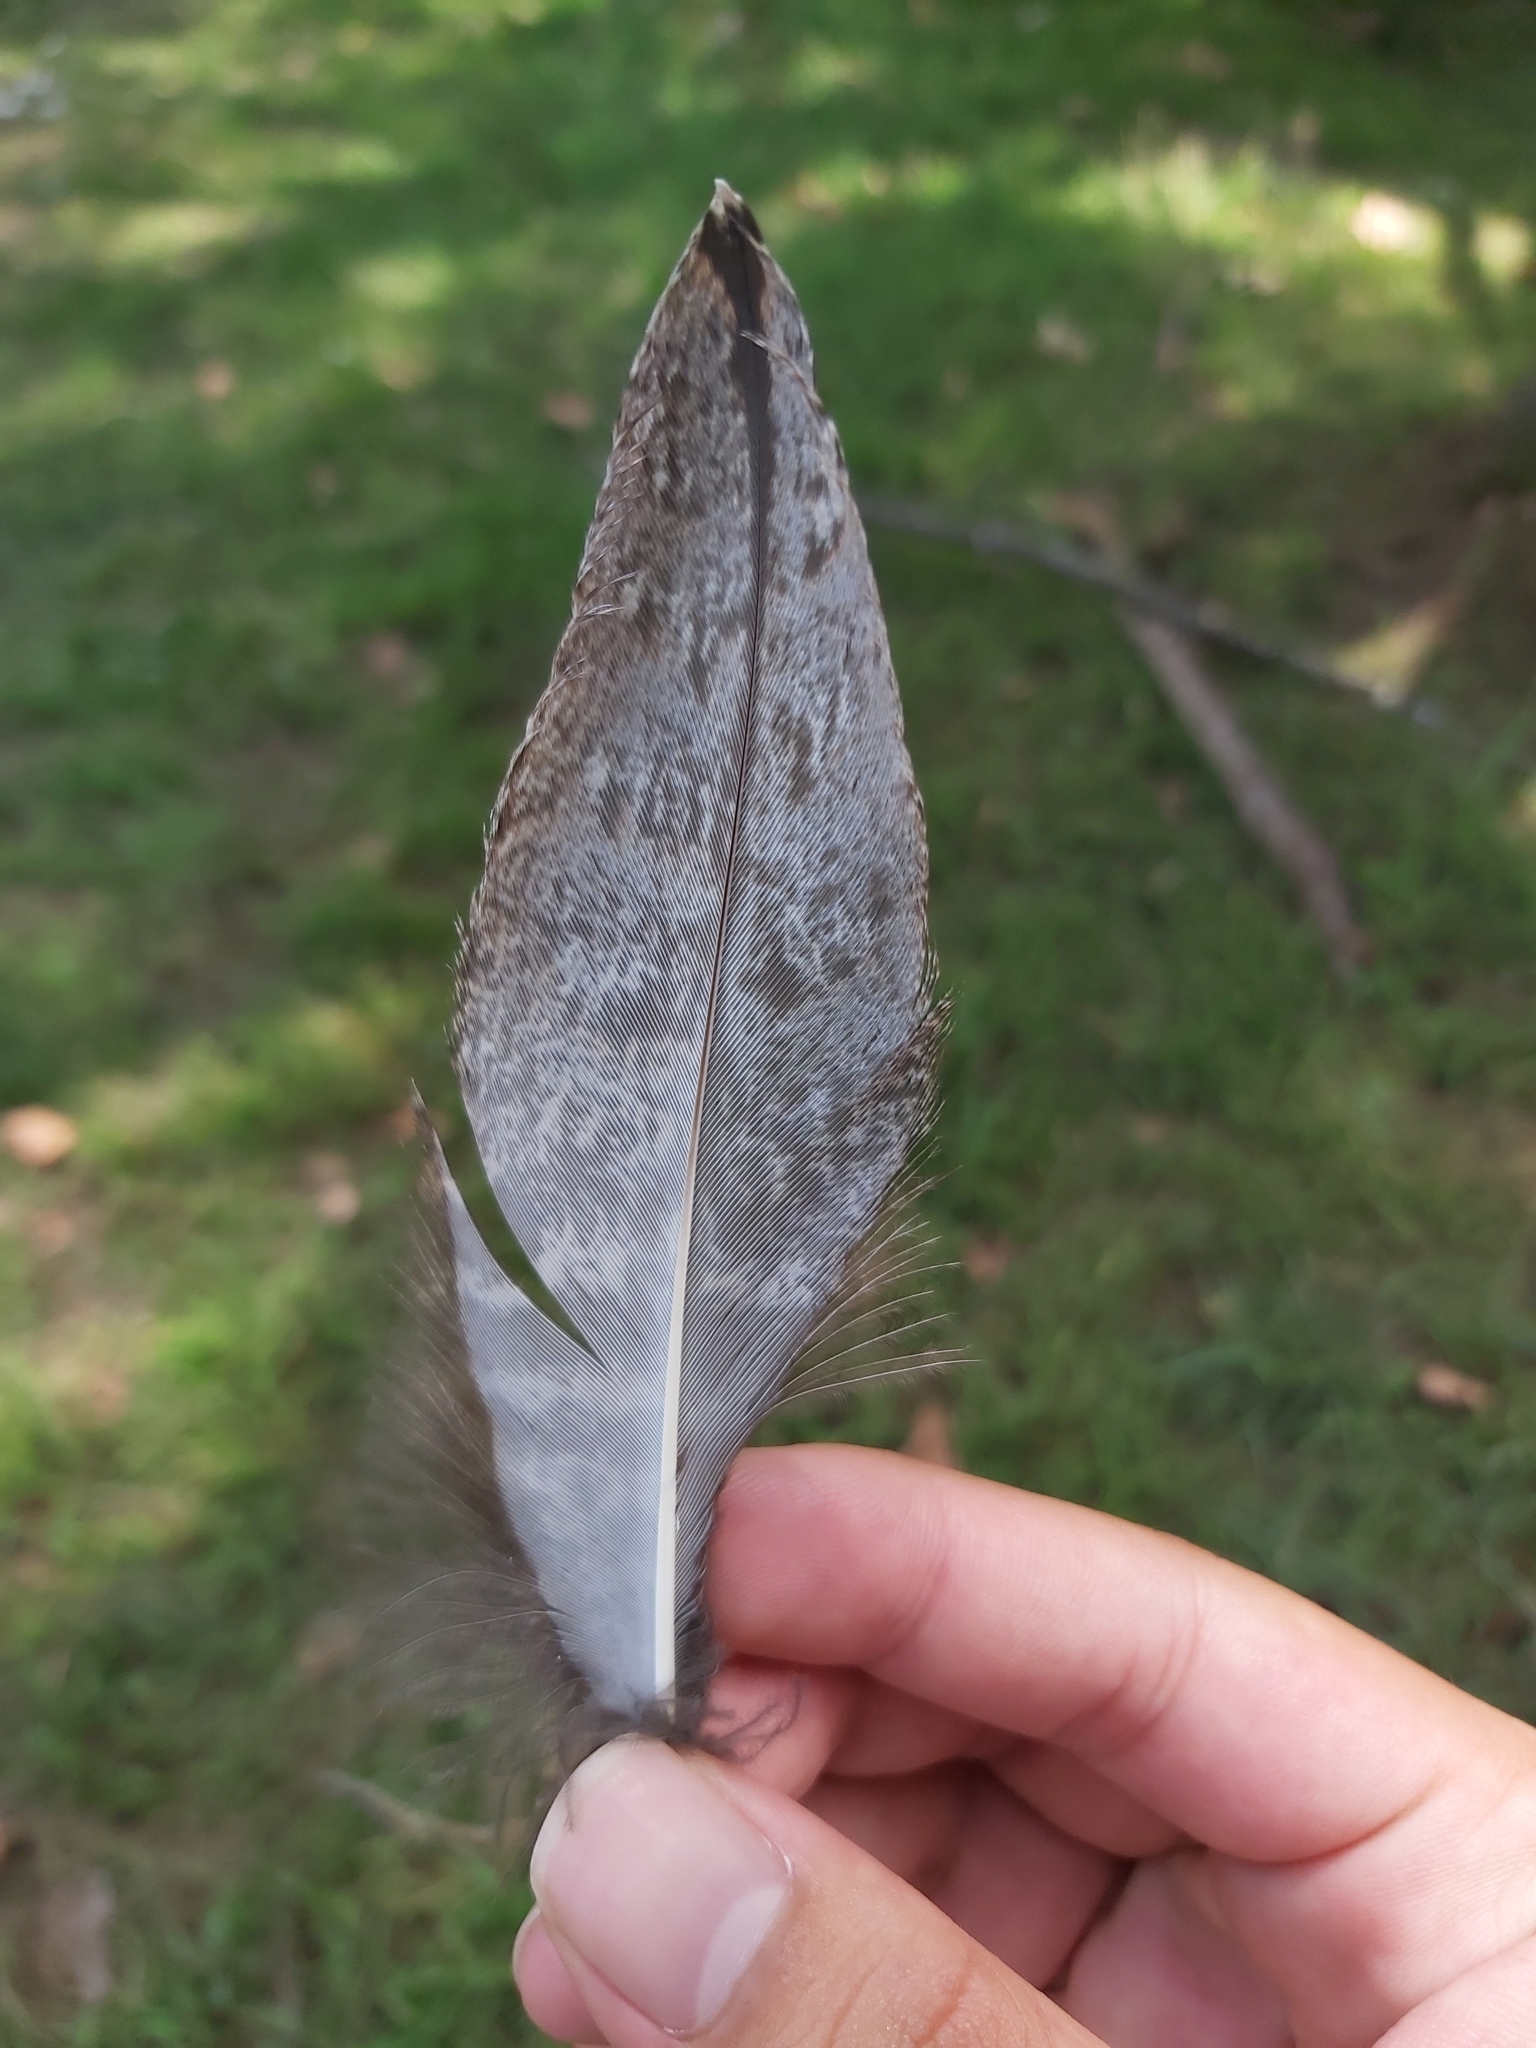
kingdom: Animalia
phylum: Chordata
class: Aves
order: Caprimulgiformes
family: Podargidae
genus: Podargus
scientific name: Podargus strigoides
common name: Tawny frogmouth
